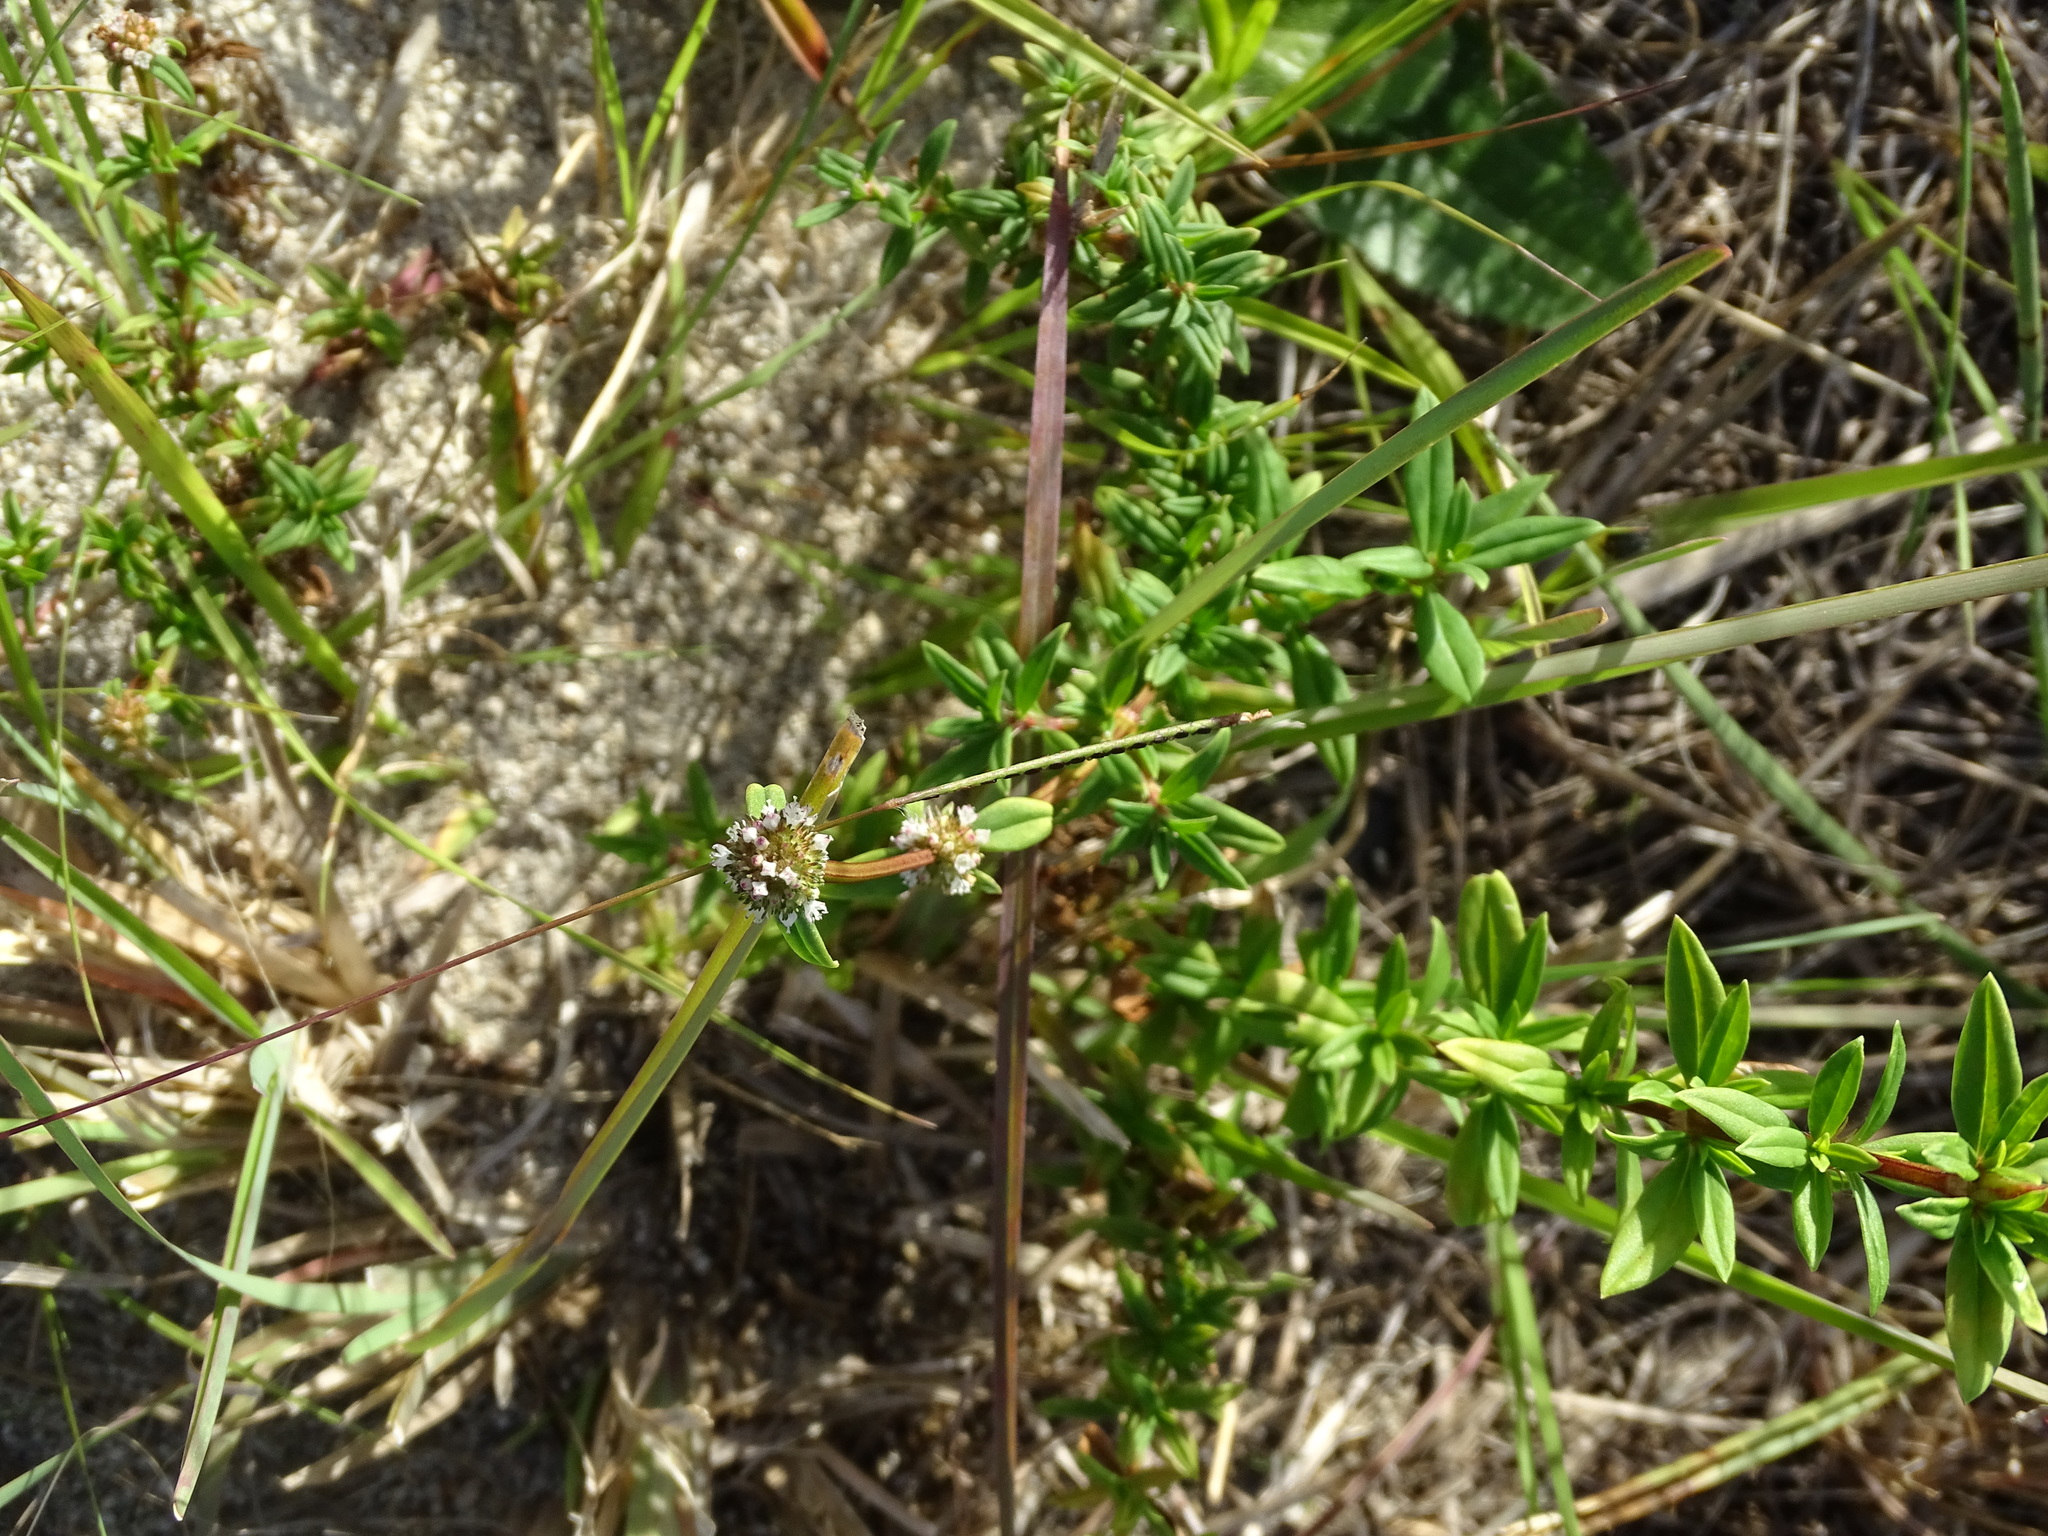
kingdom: Plantae
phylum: Tracheophyta
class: Magnoliopsida
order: Gentianales
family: Rubiaceae
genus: Spermacoce
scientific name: Spermacoce verticillata
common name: Shrubby false buttonweed
